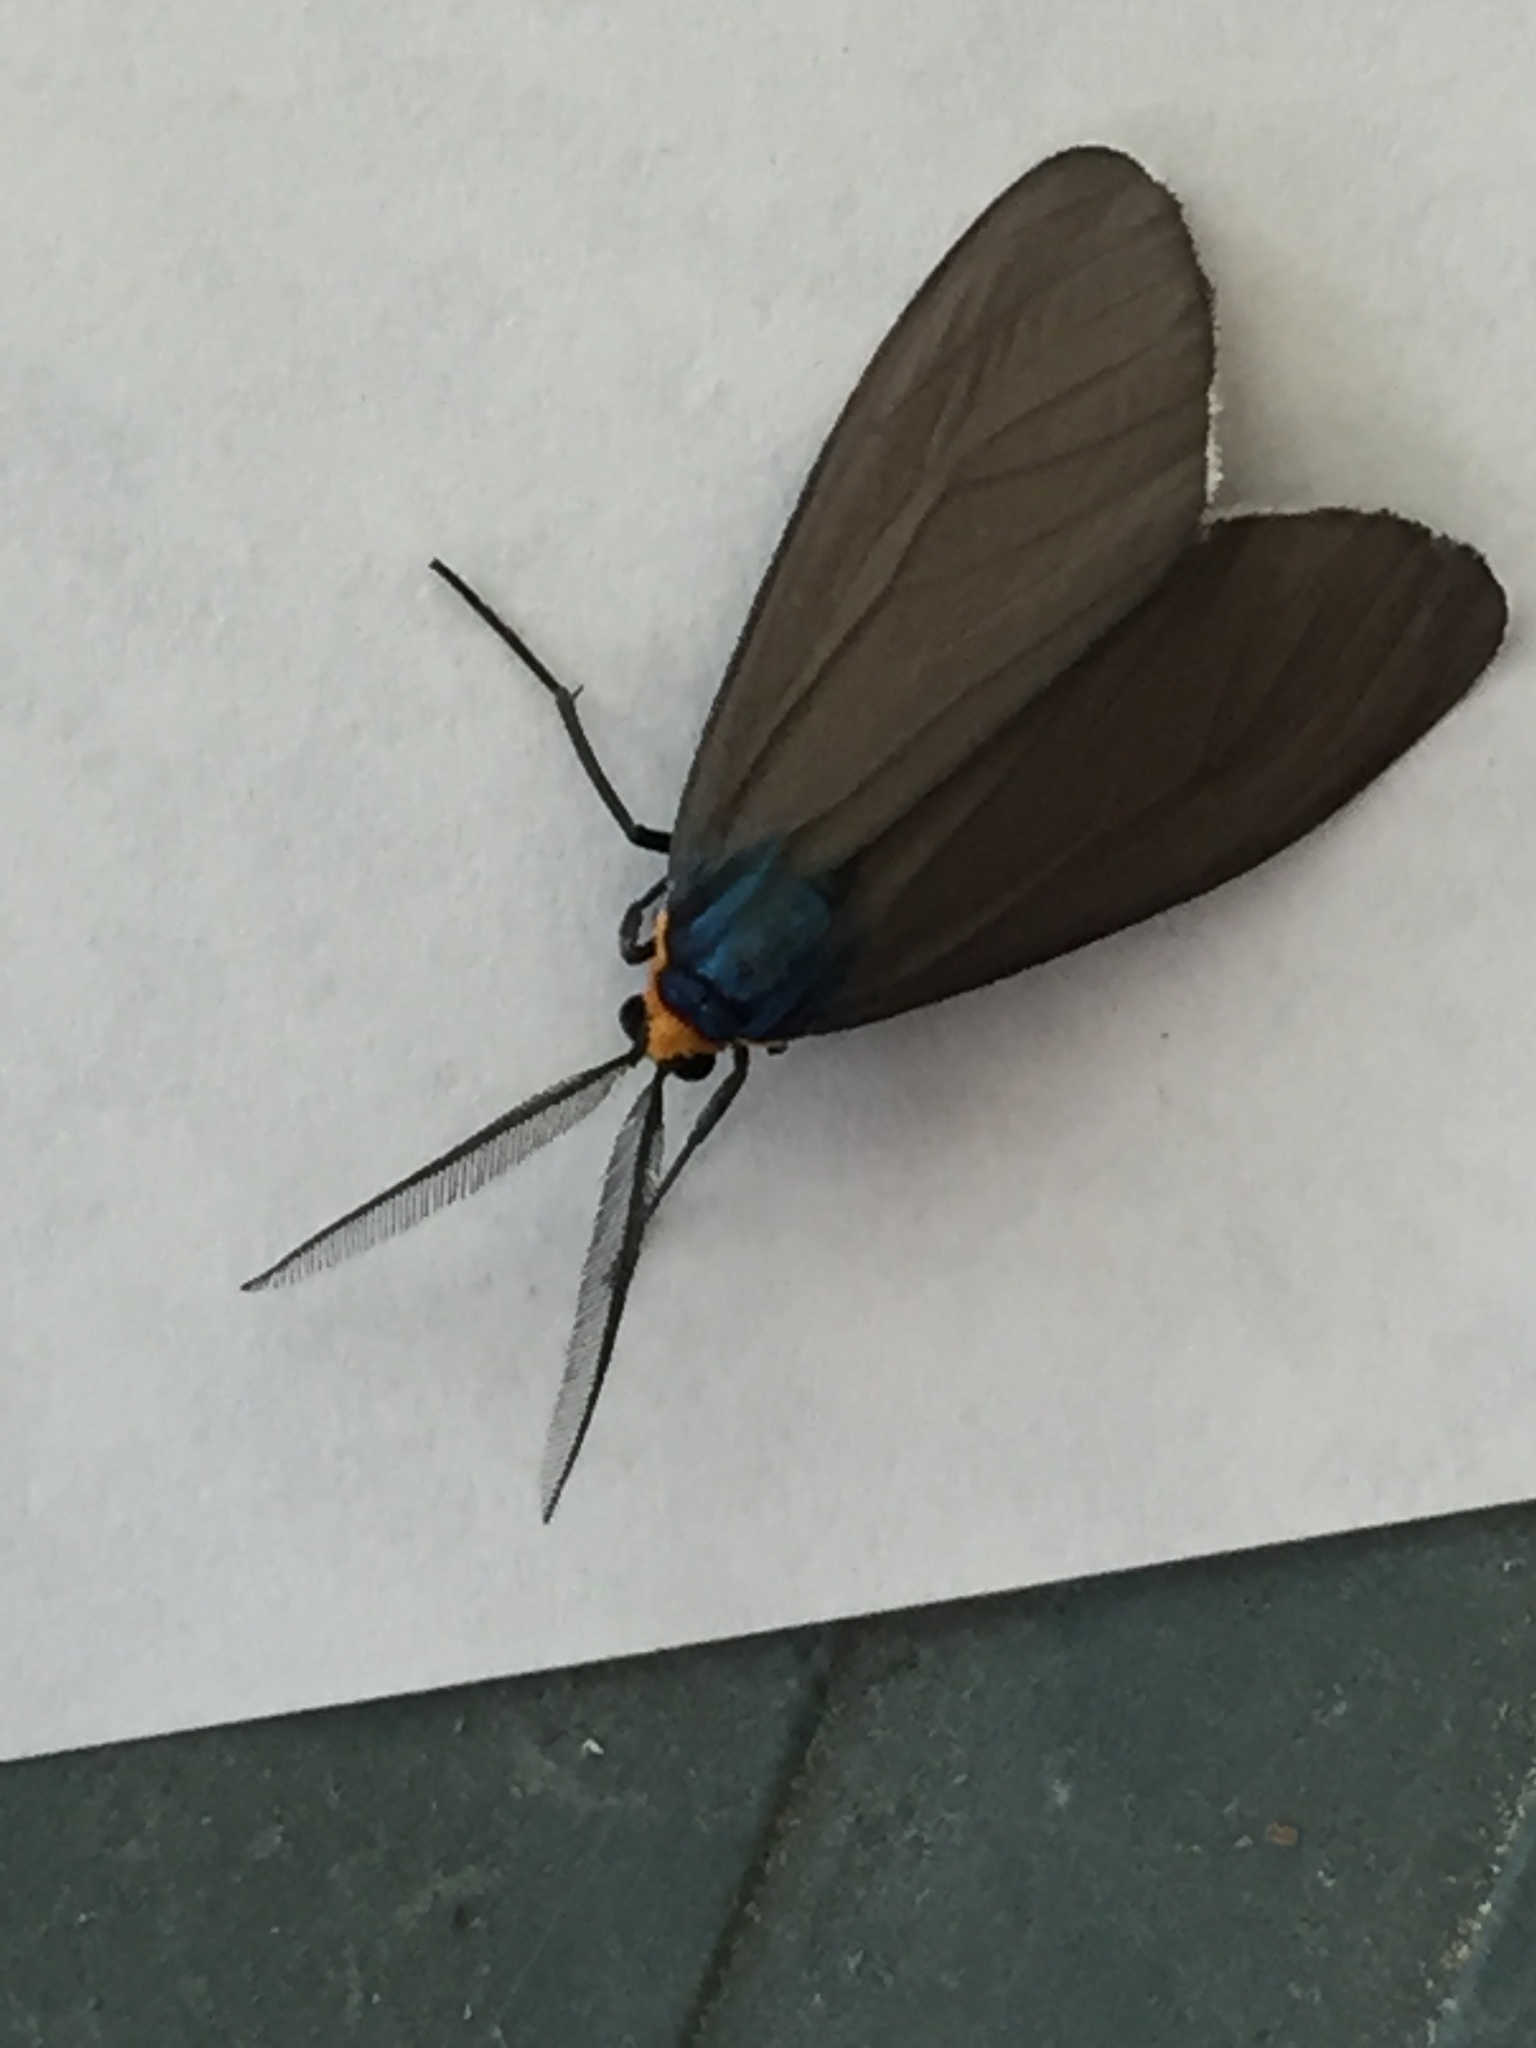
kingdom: Animalia
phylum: Arthropoda
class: Insecta
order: Lepidoptera
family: Erebidae
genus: Ctenucha
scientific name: Ctenucha virginica
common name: Virginia ctenucha moth
